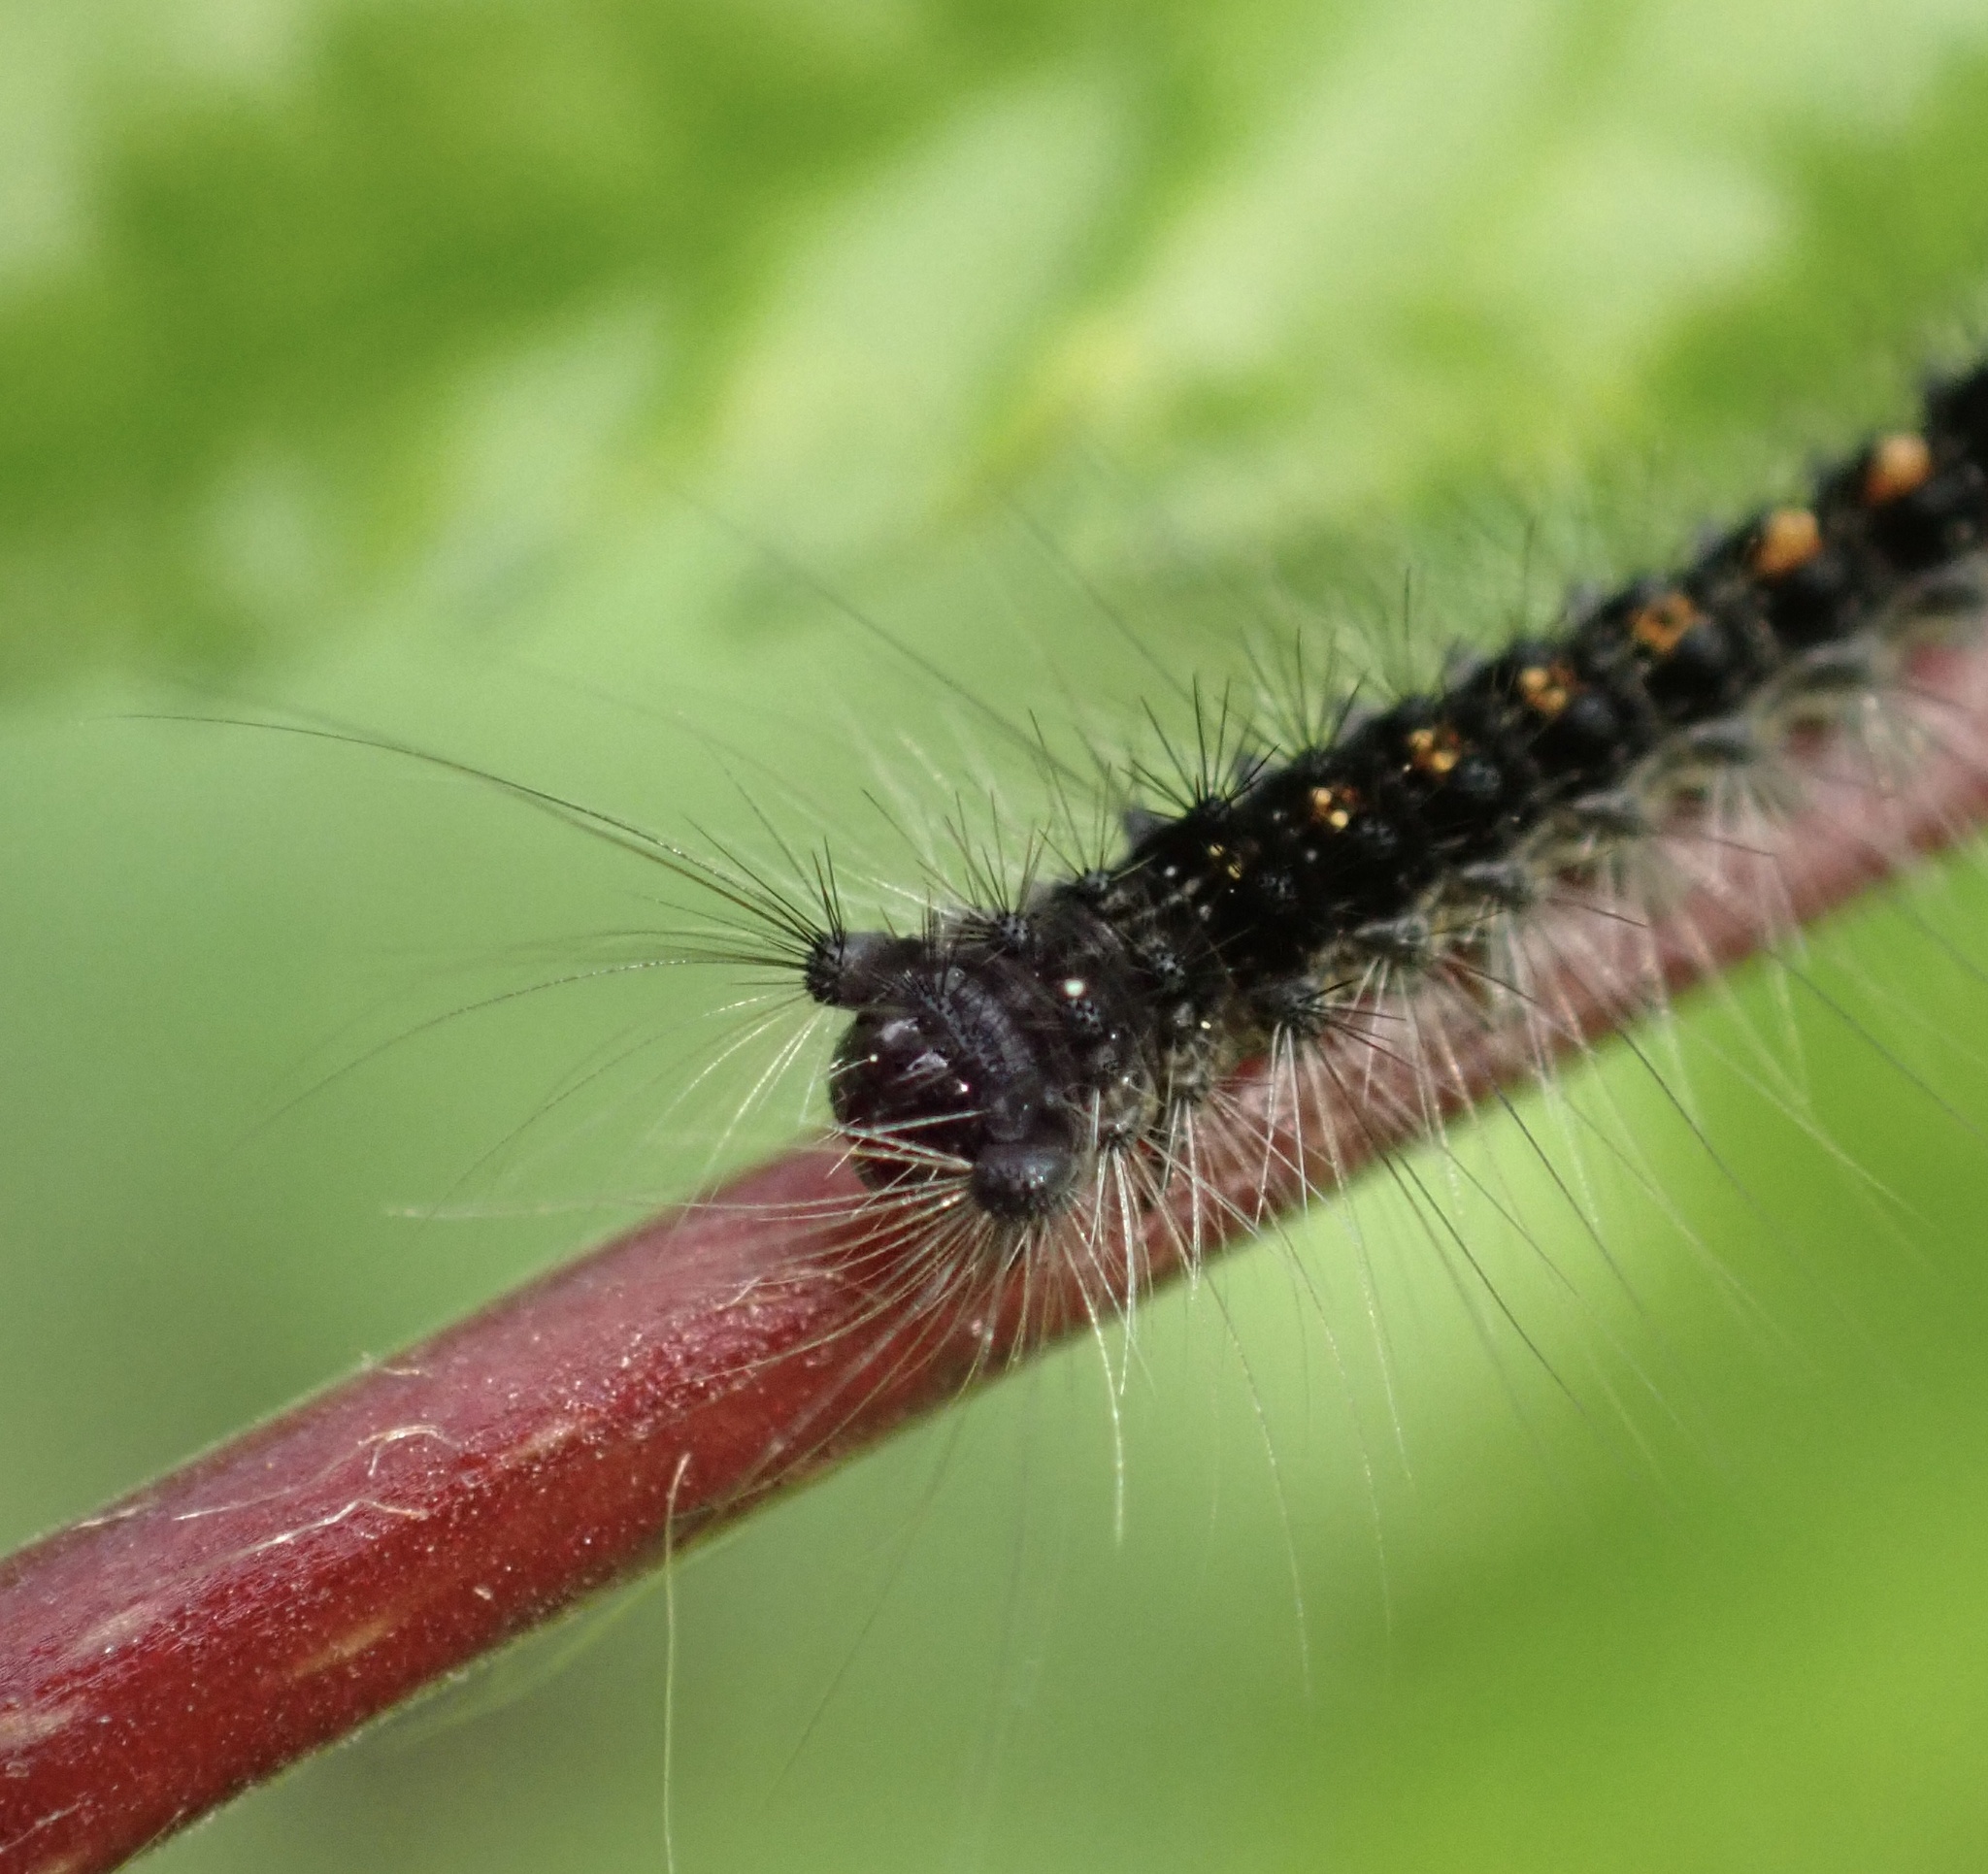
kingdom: Animalia
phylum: Arthropoda
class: Insecta
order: Lepidoptera
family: Erebidae
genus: Lymantria
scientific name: Lymantria dispar
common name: Gypsy moth
